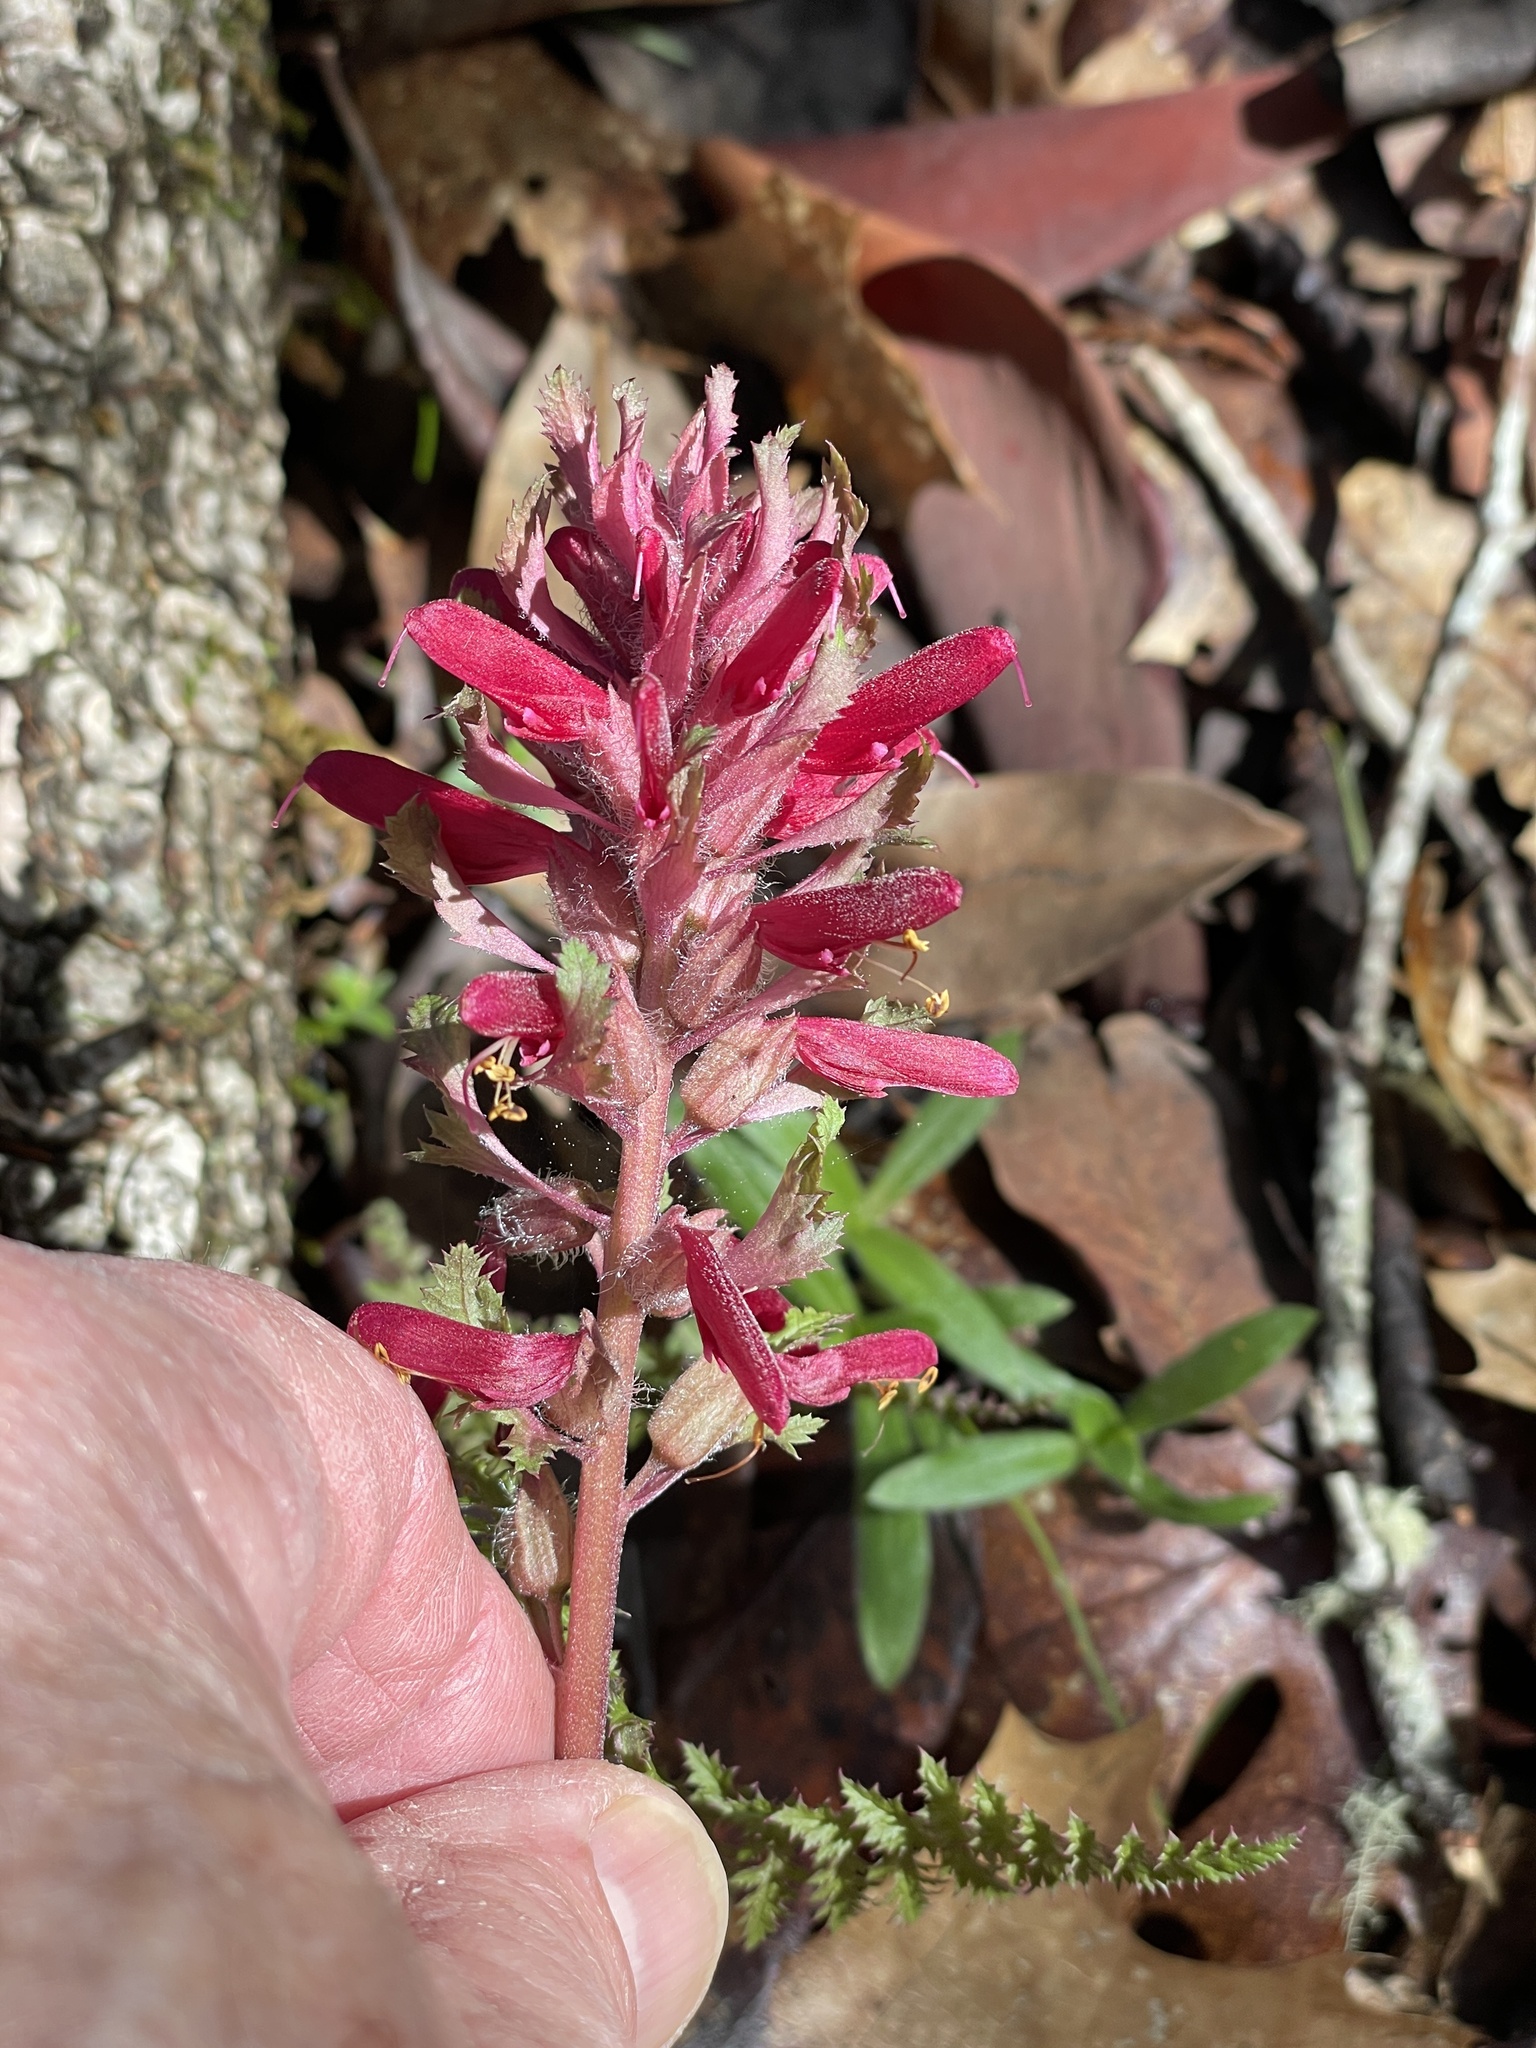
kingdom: Plantae
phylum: Tracheophyta
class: Magnoliopsida
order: Lamiales
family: Orobanchaceae
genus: Pedicularis
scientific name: Pedicularis densiflora
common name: Indian warrior
